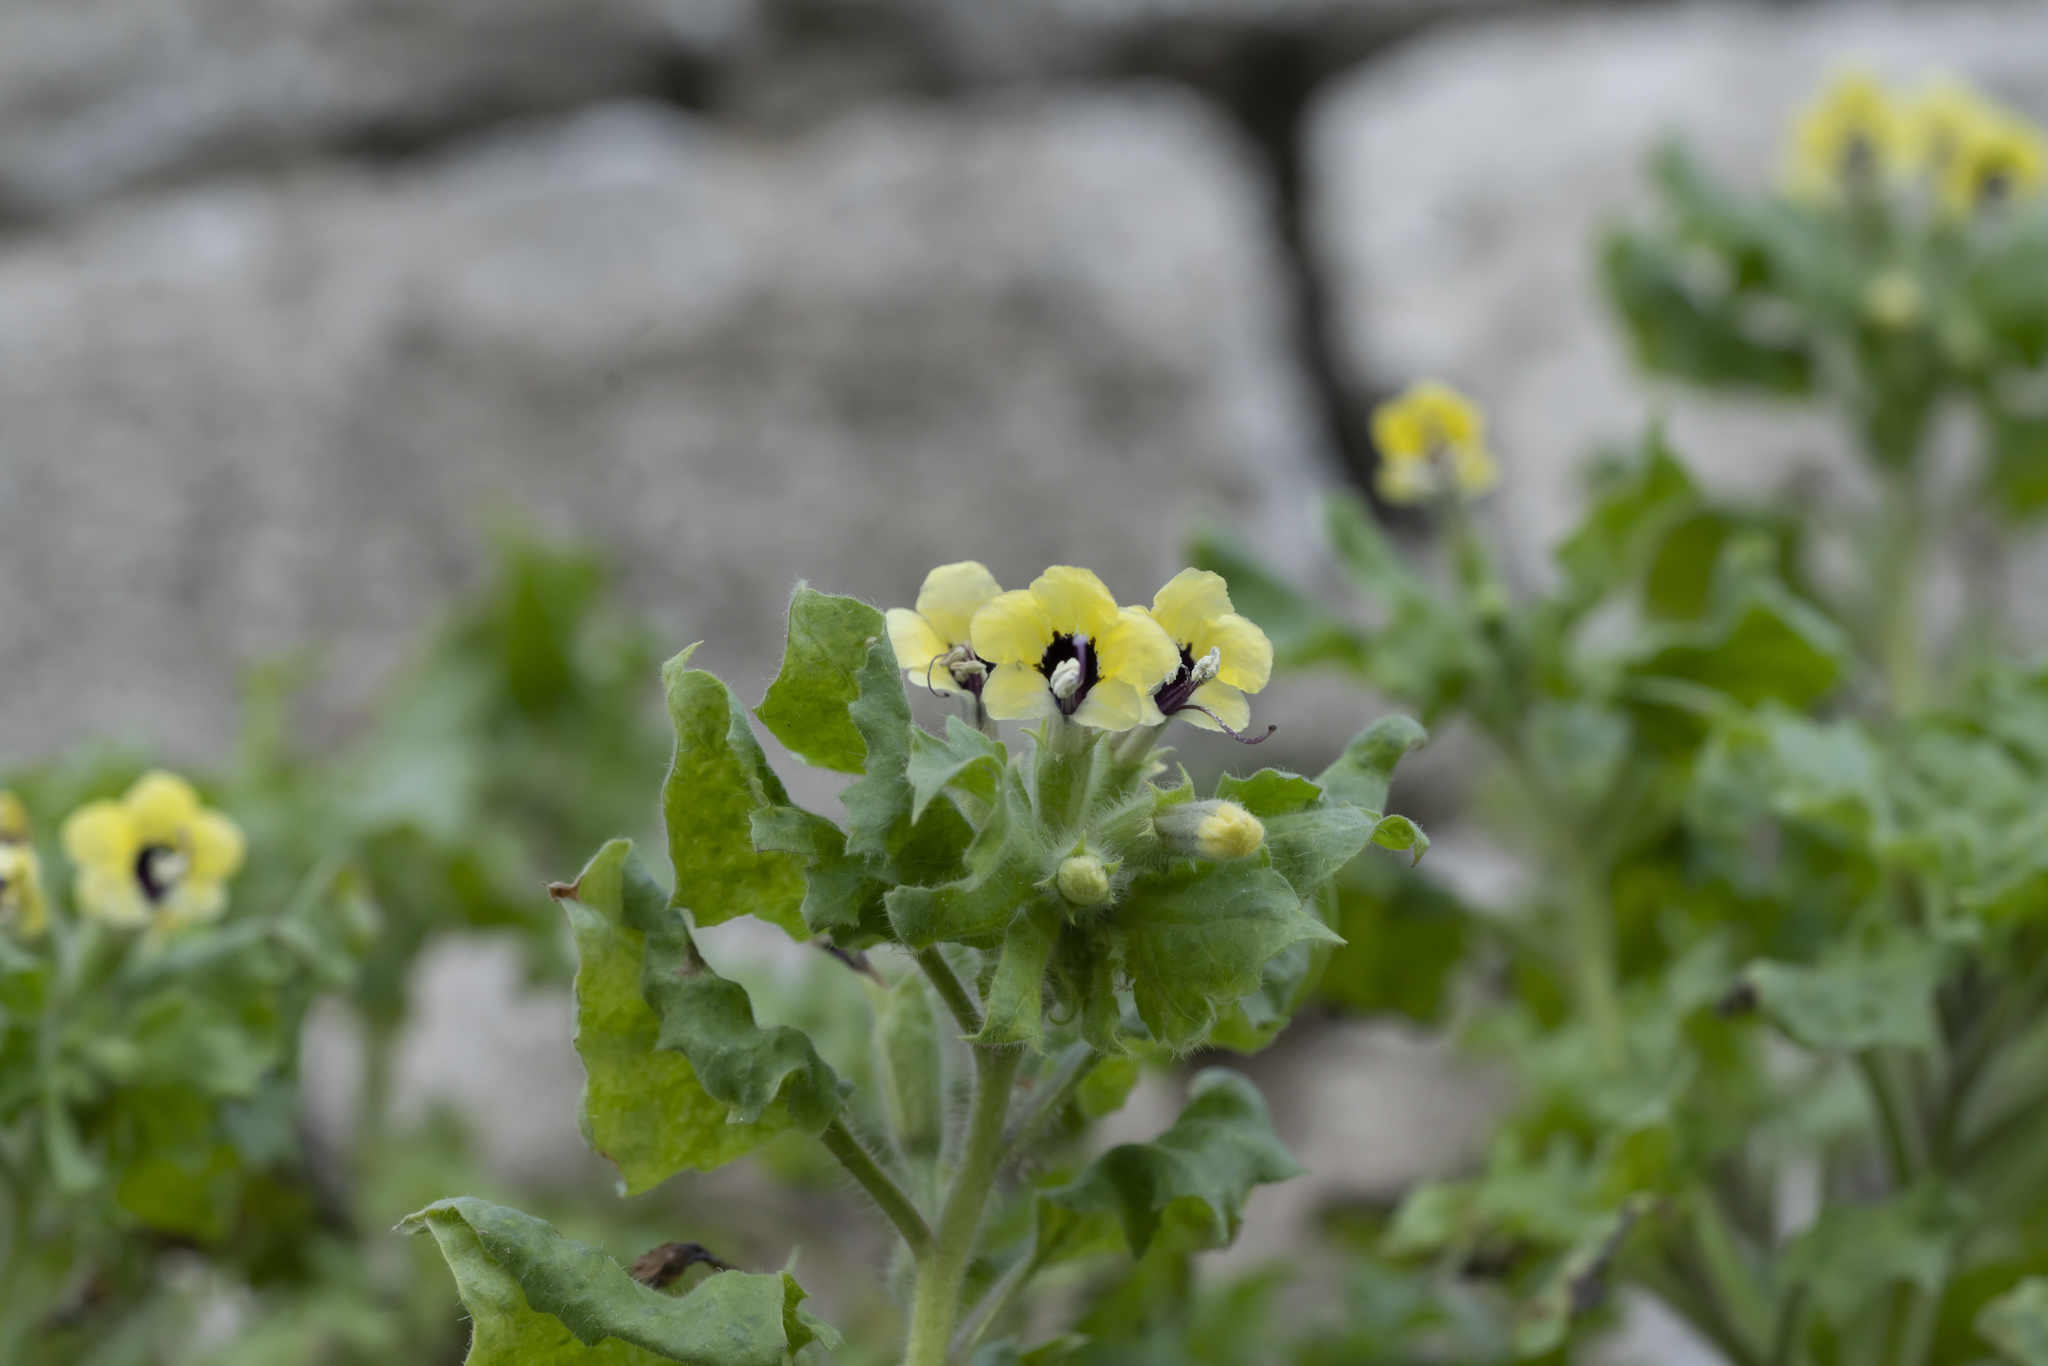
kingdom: Plantae
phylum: Tracheophyta
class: Magnoliopsida
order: Solanales
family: Solanaceae
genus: Hyoscyamus
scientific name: Hyoscyamus aureus
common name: Golden henbane
